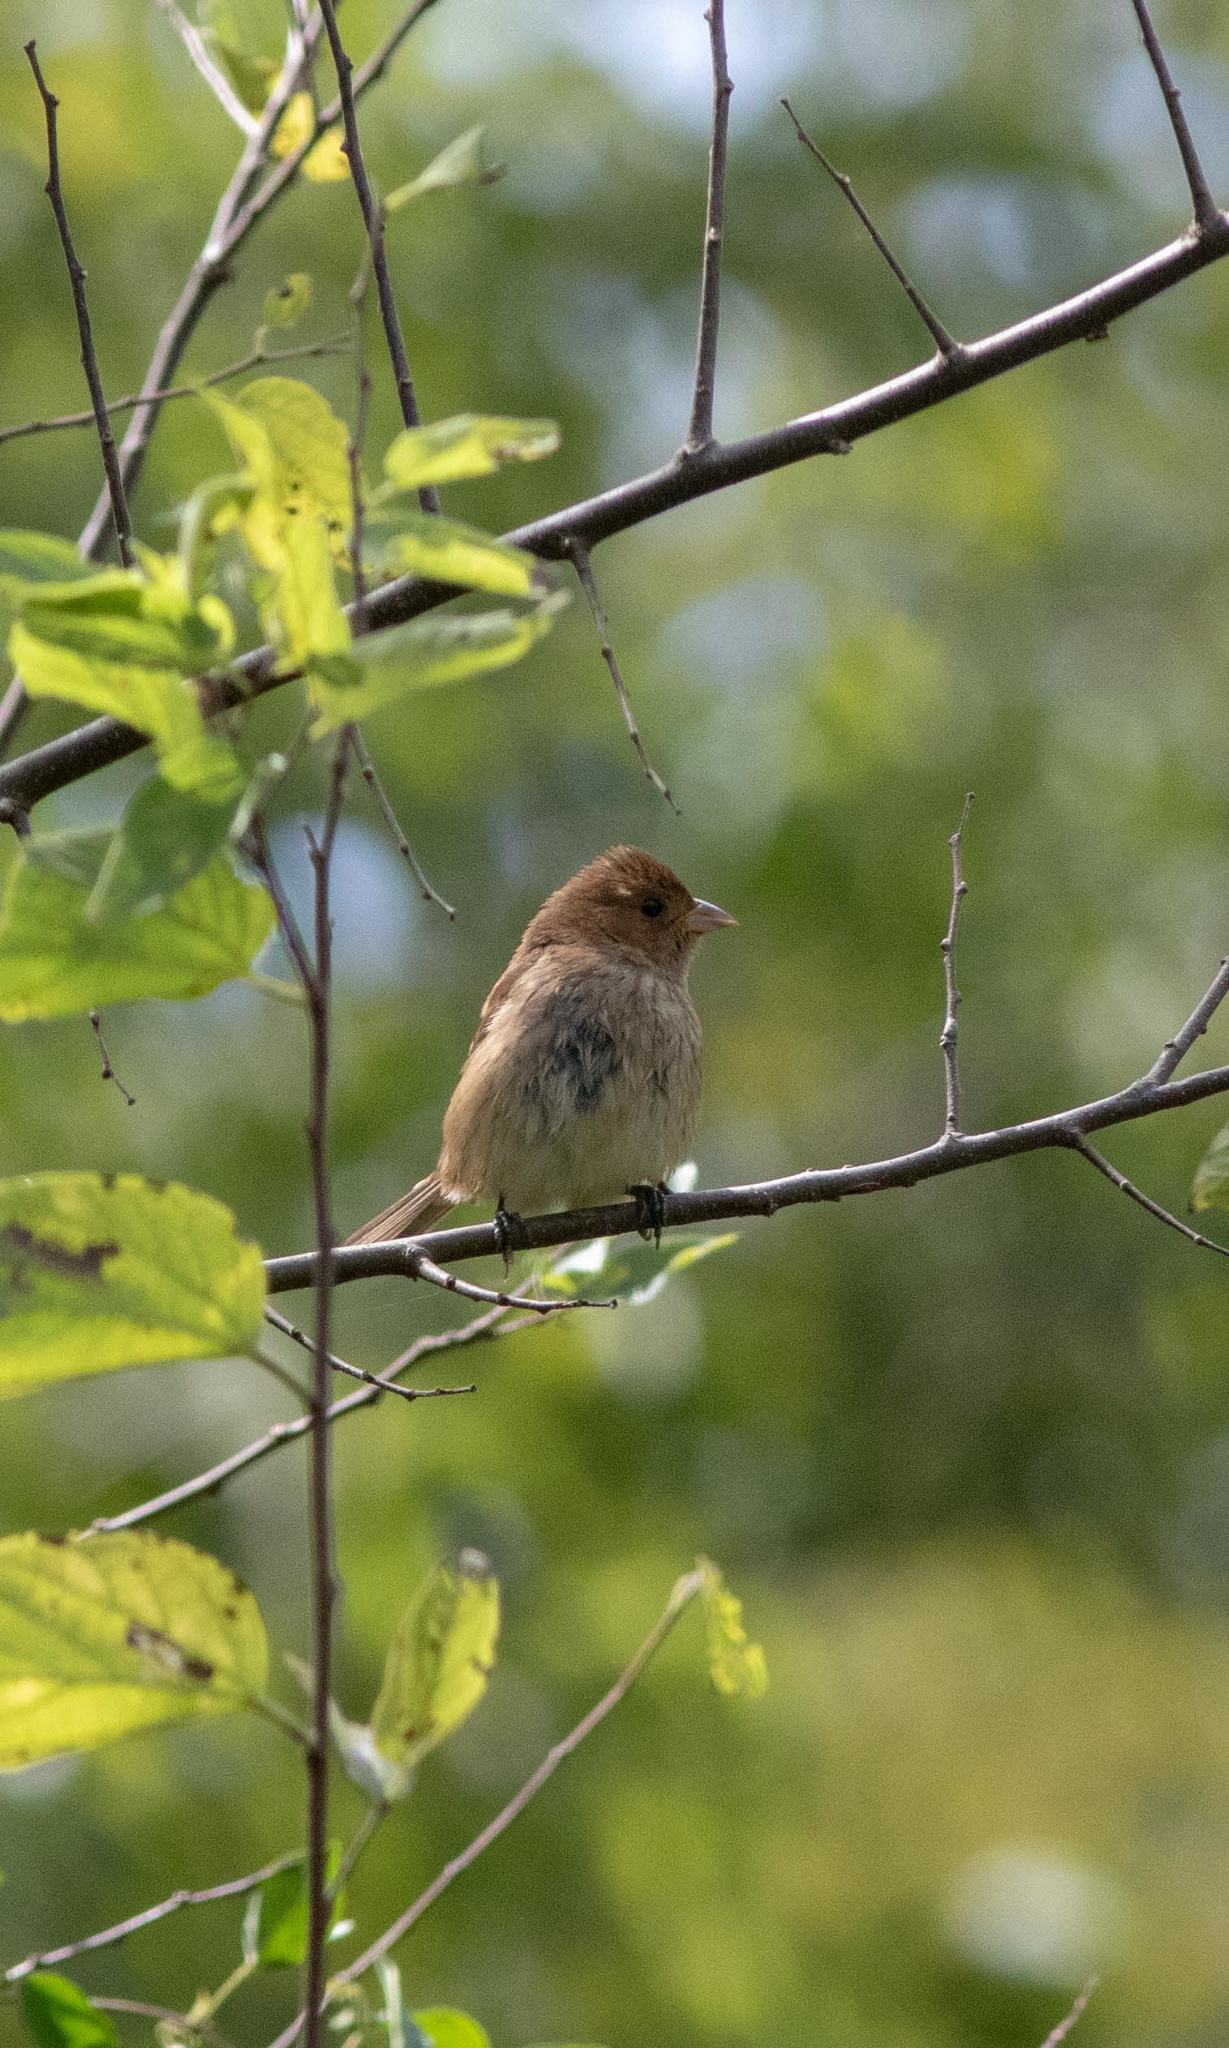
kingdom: Animalia
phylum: Chordata
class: Aves
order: Passeriformes
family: Cardinalidae
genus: Passerina
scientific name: Passerina cyanea
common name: Indigo bunting
